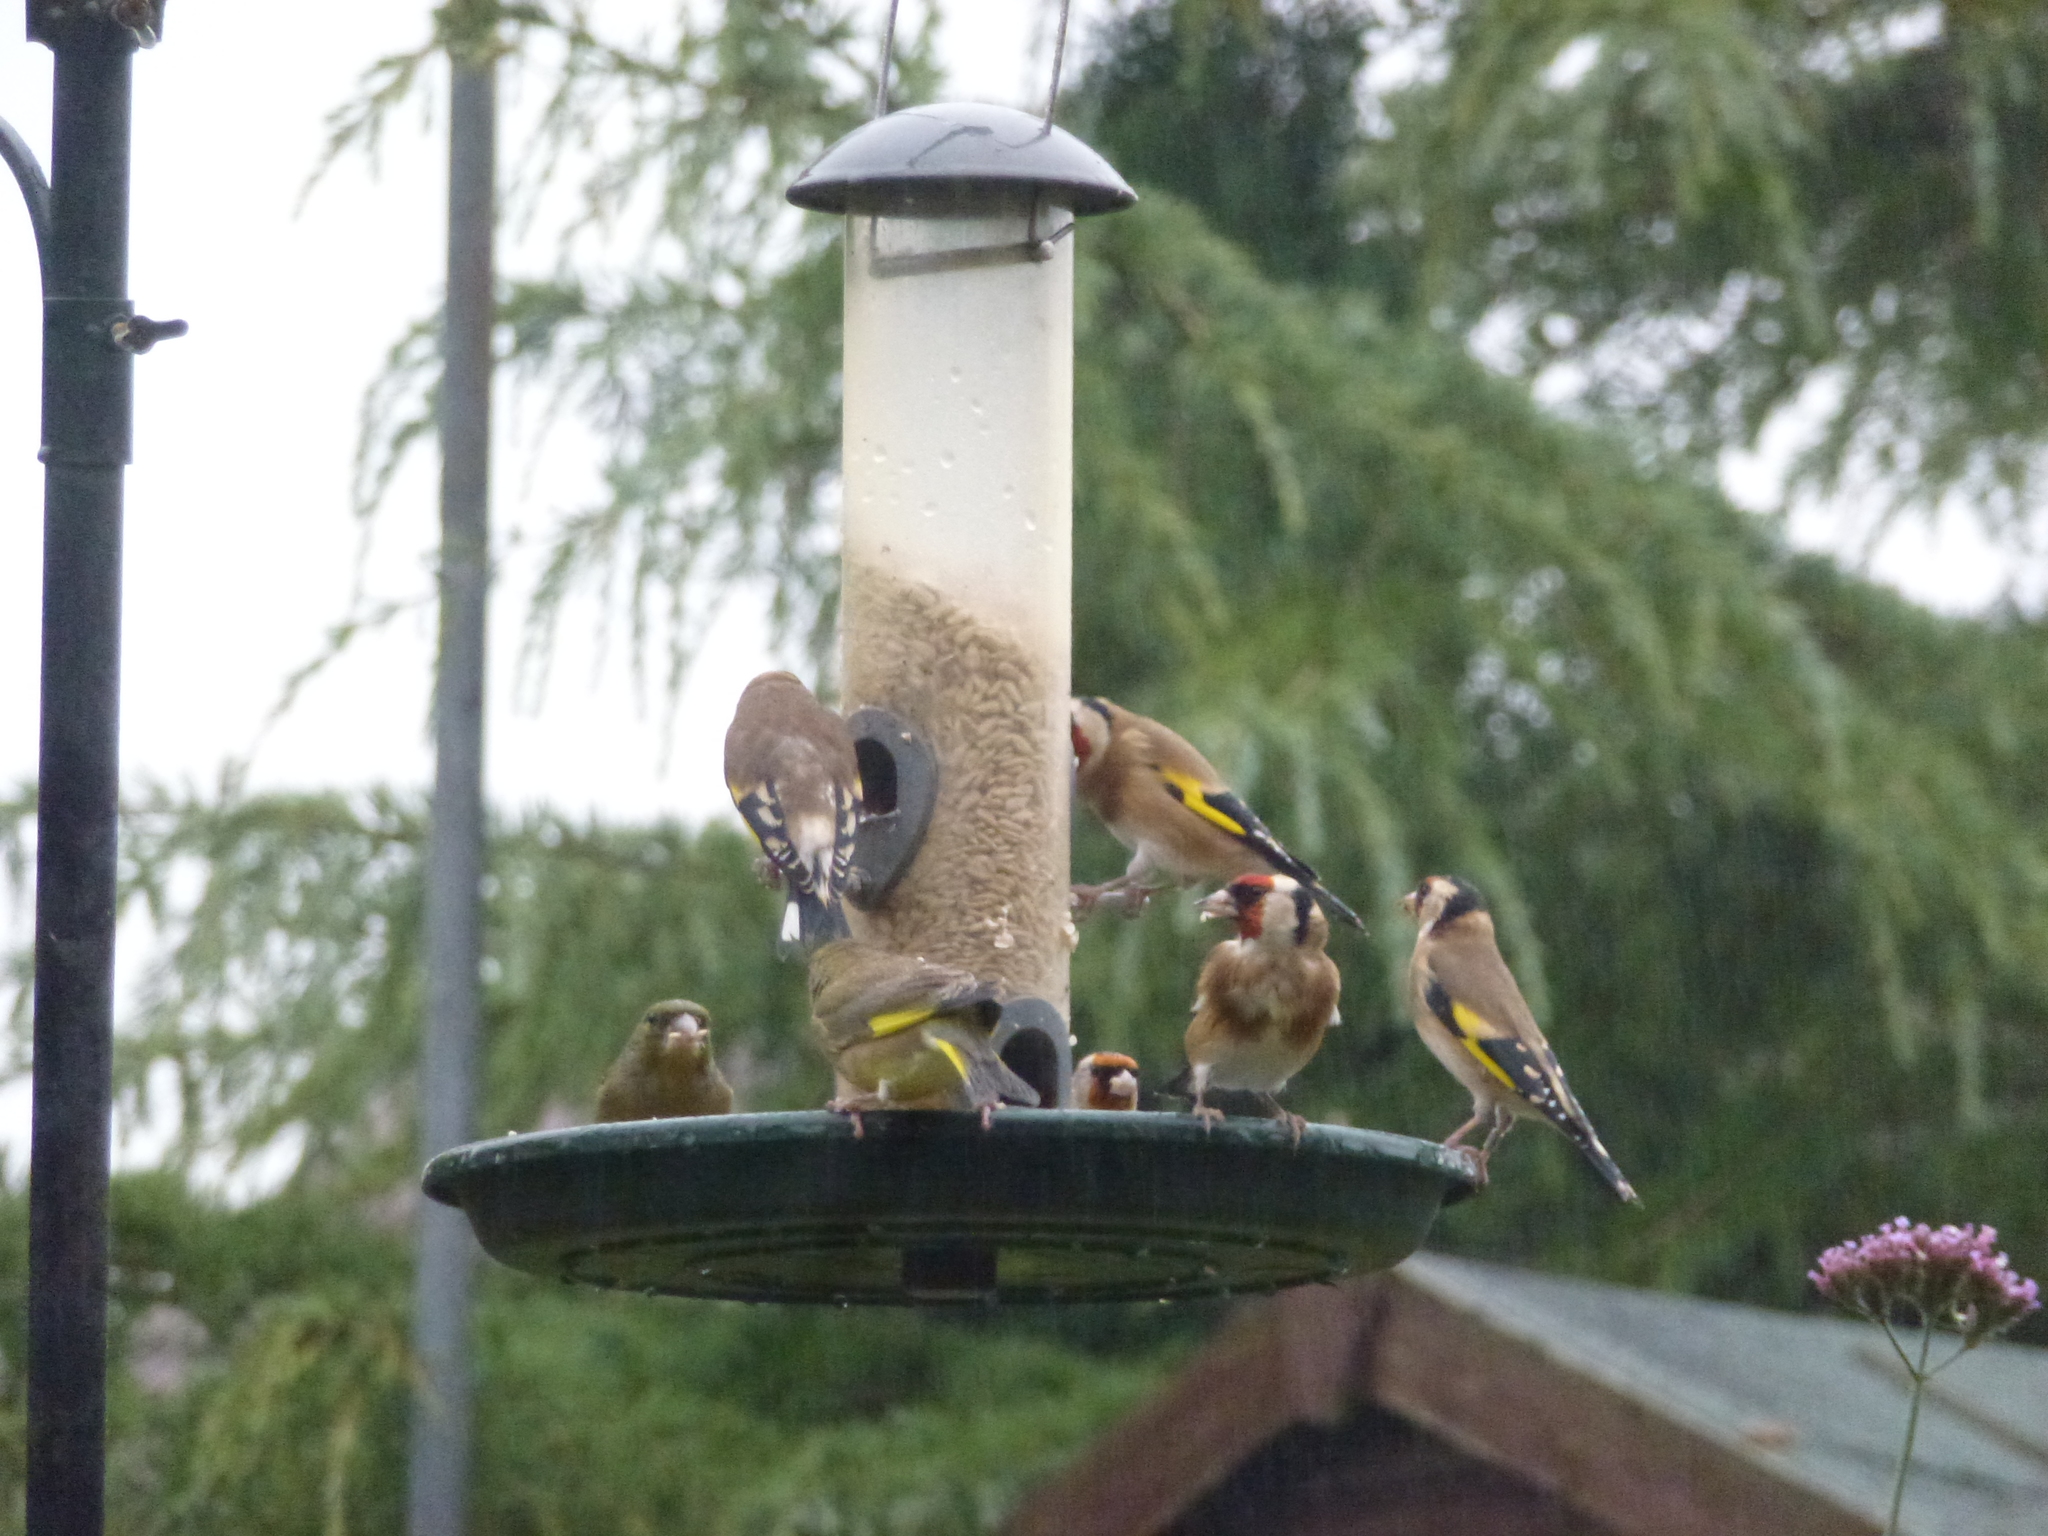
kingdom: Animalia
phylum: Chordata
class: Aves
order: Passeriformes
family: Fringillidae
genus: Carduelis
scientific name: Carduelis carduelis
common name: European goldfinch
